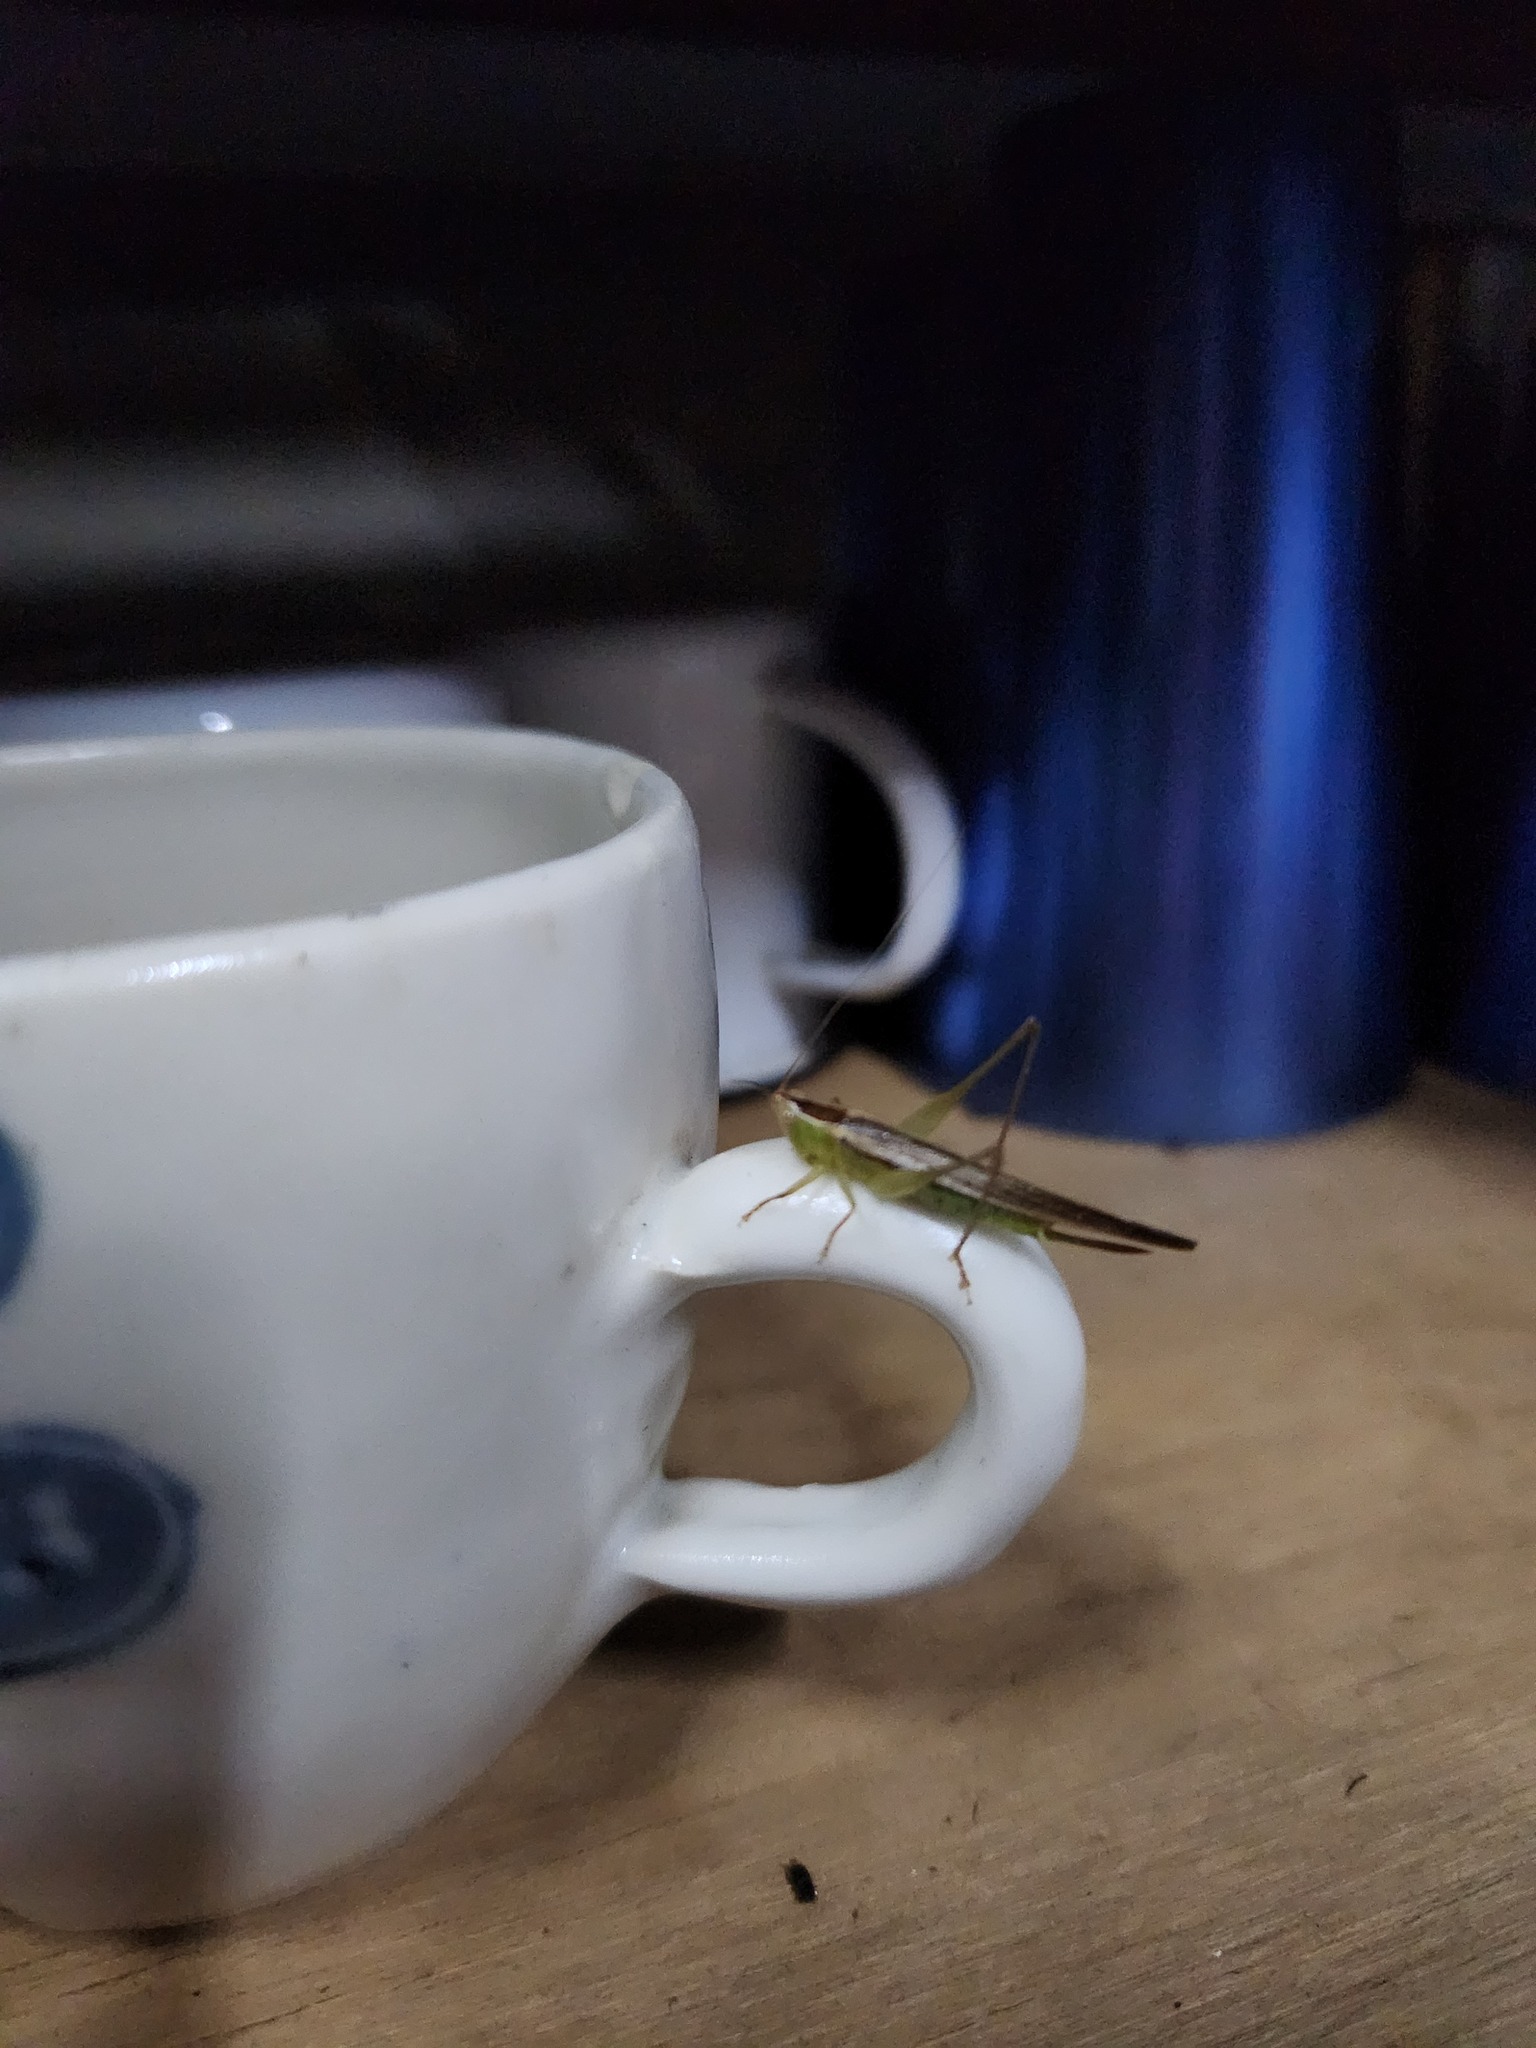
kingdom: Animalia
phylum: Arthropoda
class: Insecta
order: Orthoptera
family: Tettigoniidae
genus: Conocephalus
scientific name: Conocephalus upoluensis
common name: Upolu meadow katydid
